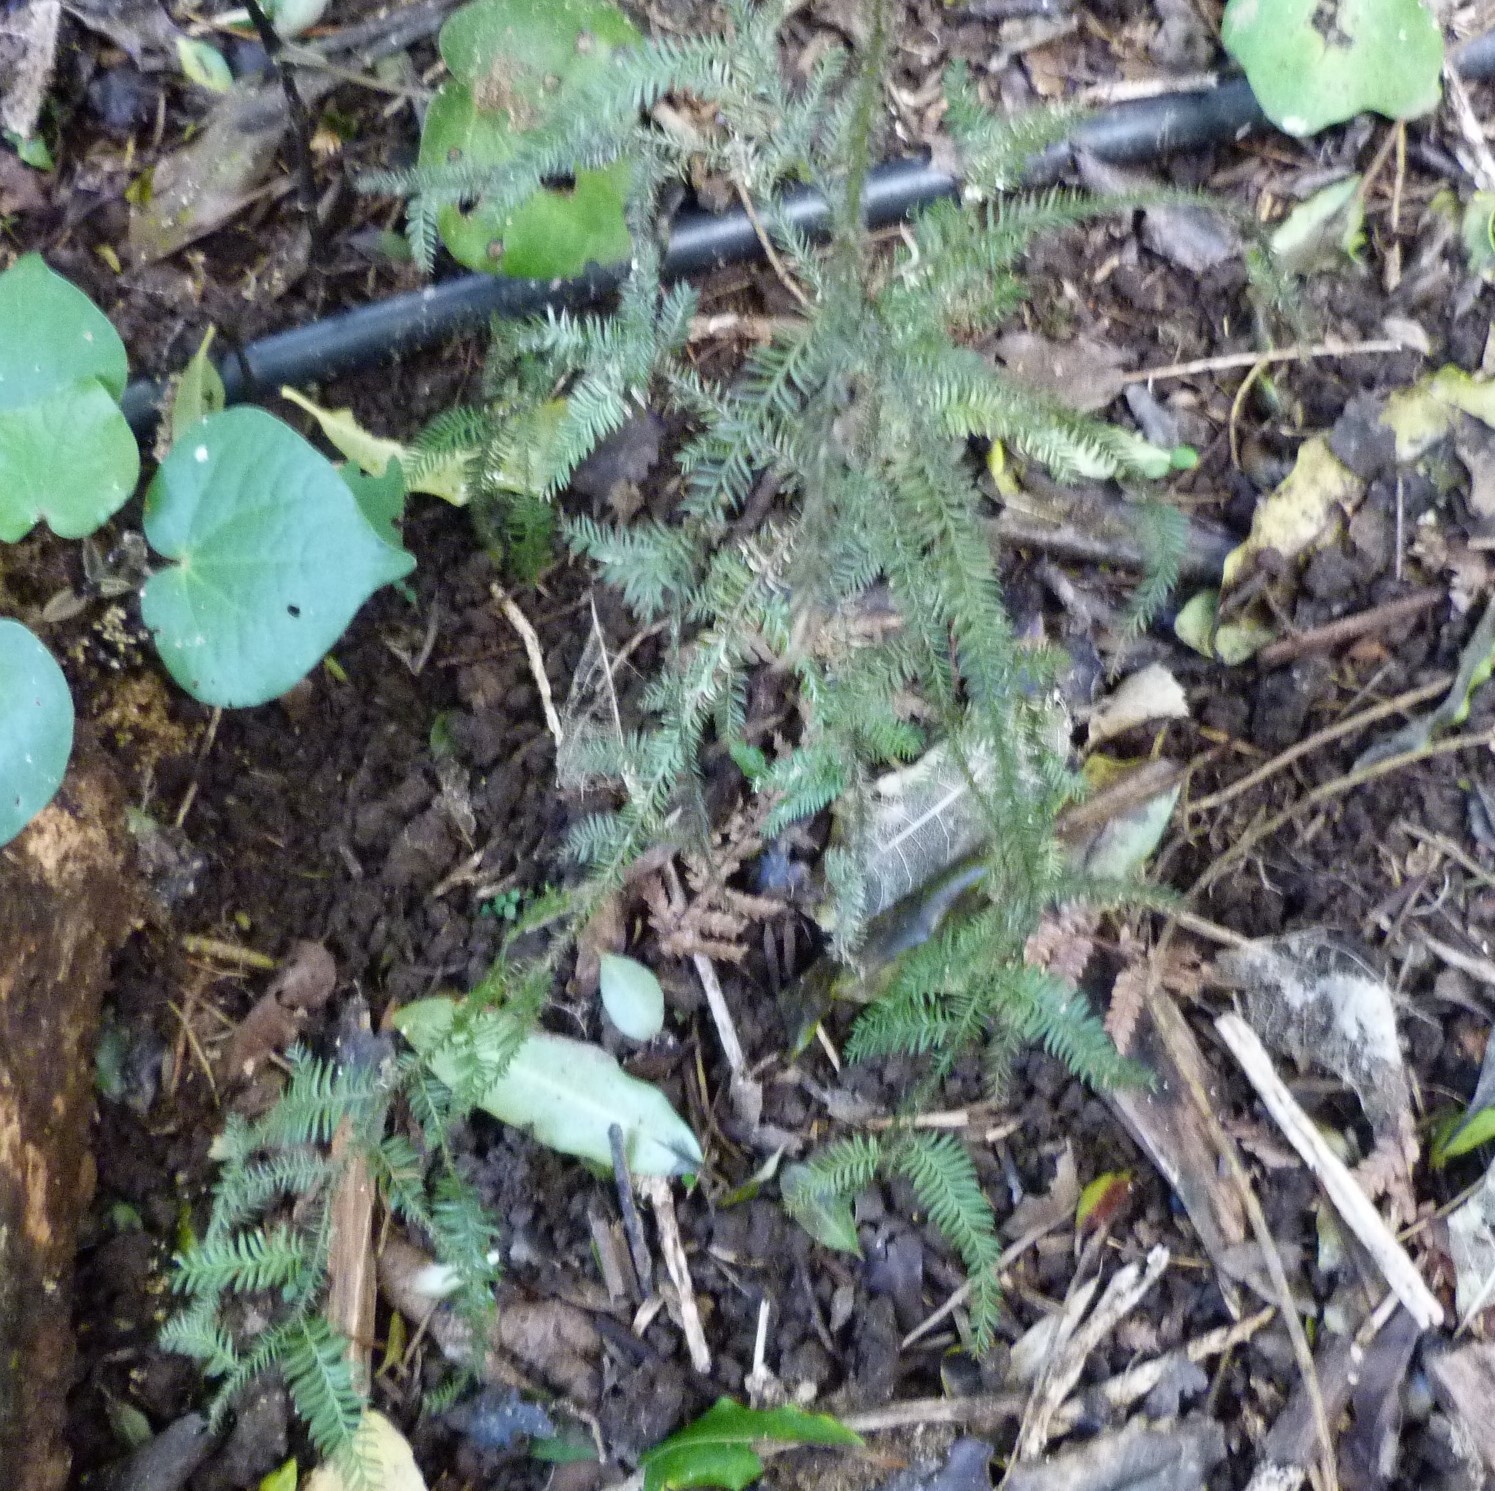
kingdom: Plantae
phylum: Tracheophyta
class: Pinopsida
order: Pinales
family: Podocarpaceae
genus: Dacrycarpus
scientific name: Dacrycarpus dacrydioides
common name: White pine
